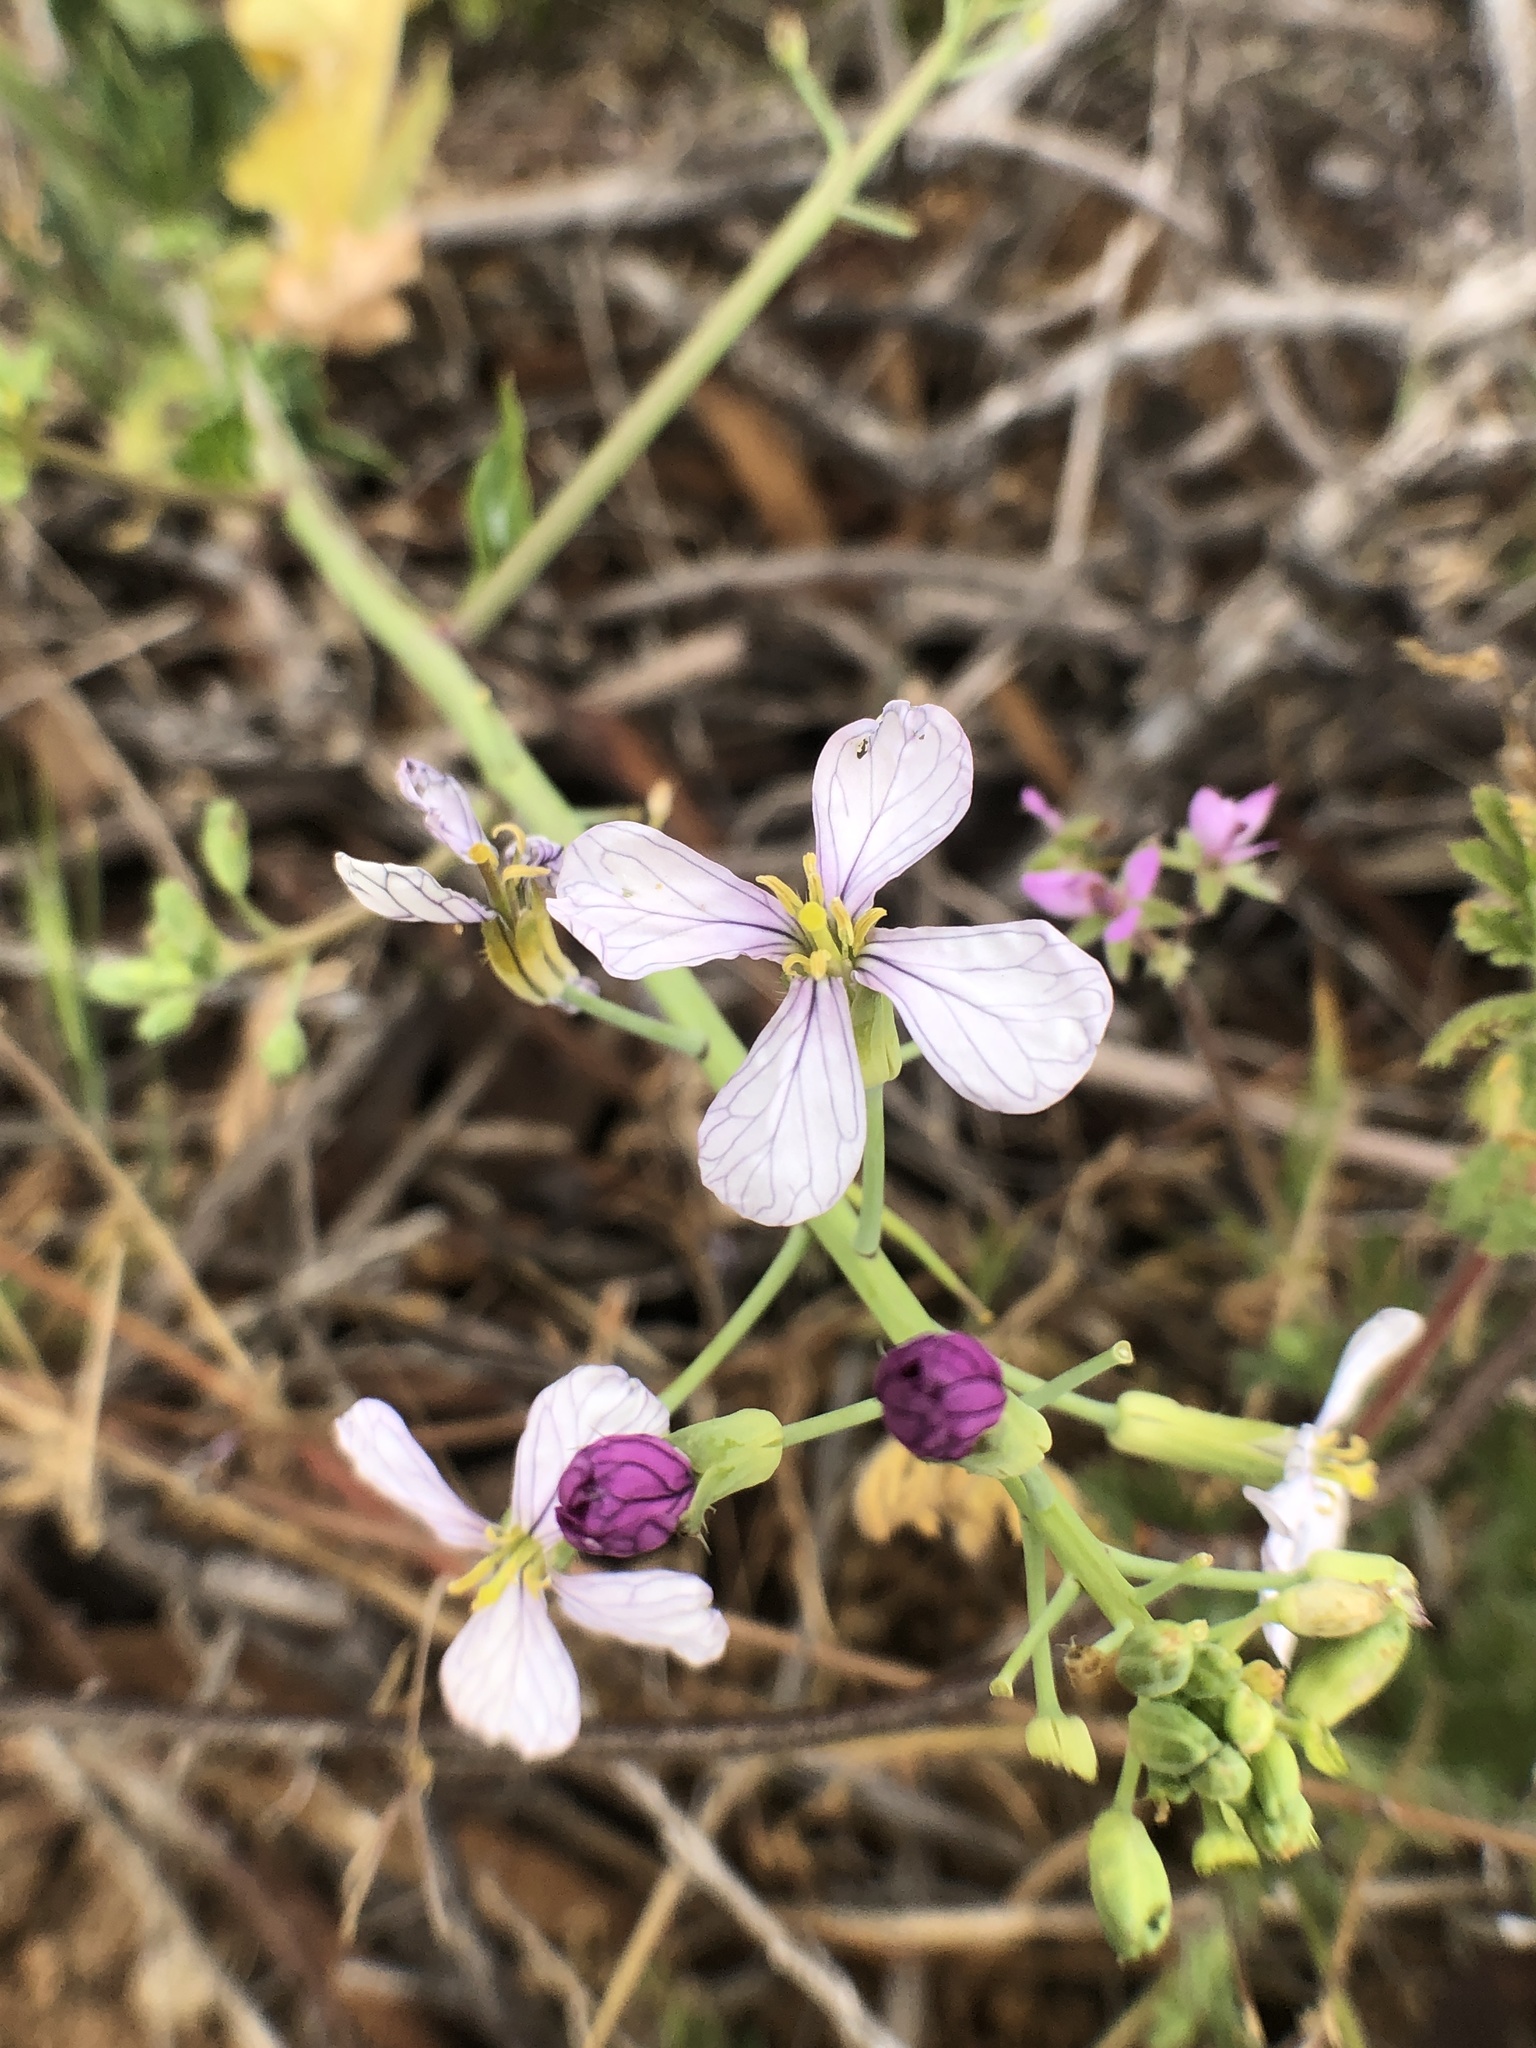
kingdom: Plantae
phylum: Tracheophyta
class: Magnoliopsida
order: Brassicales
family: Brassicaceae
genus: Raphanus
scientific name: Raphanus sativus
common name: Cultivated radish
